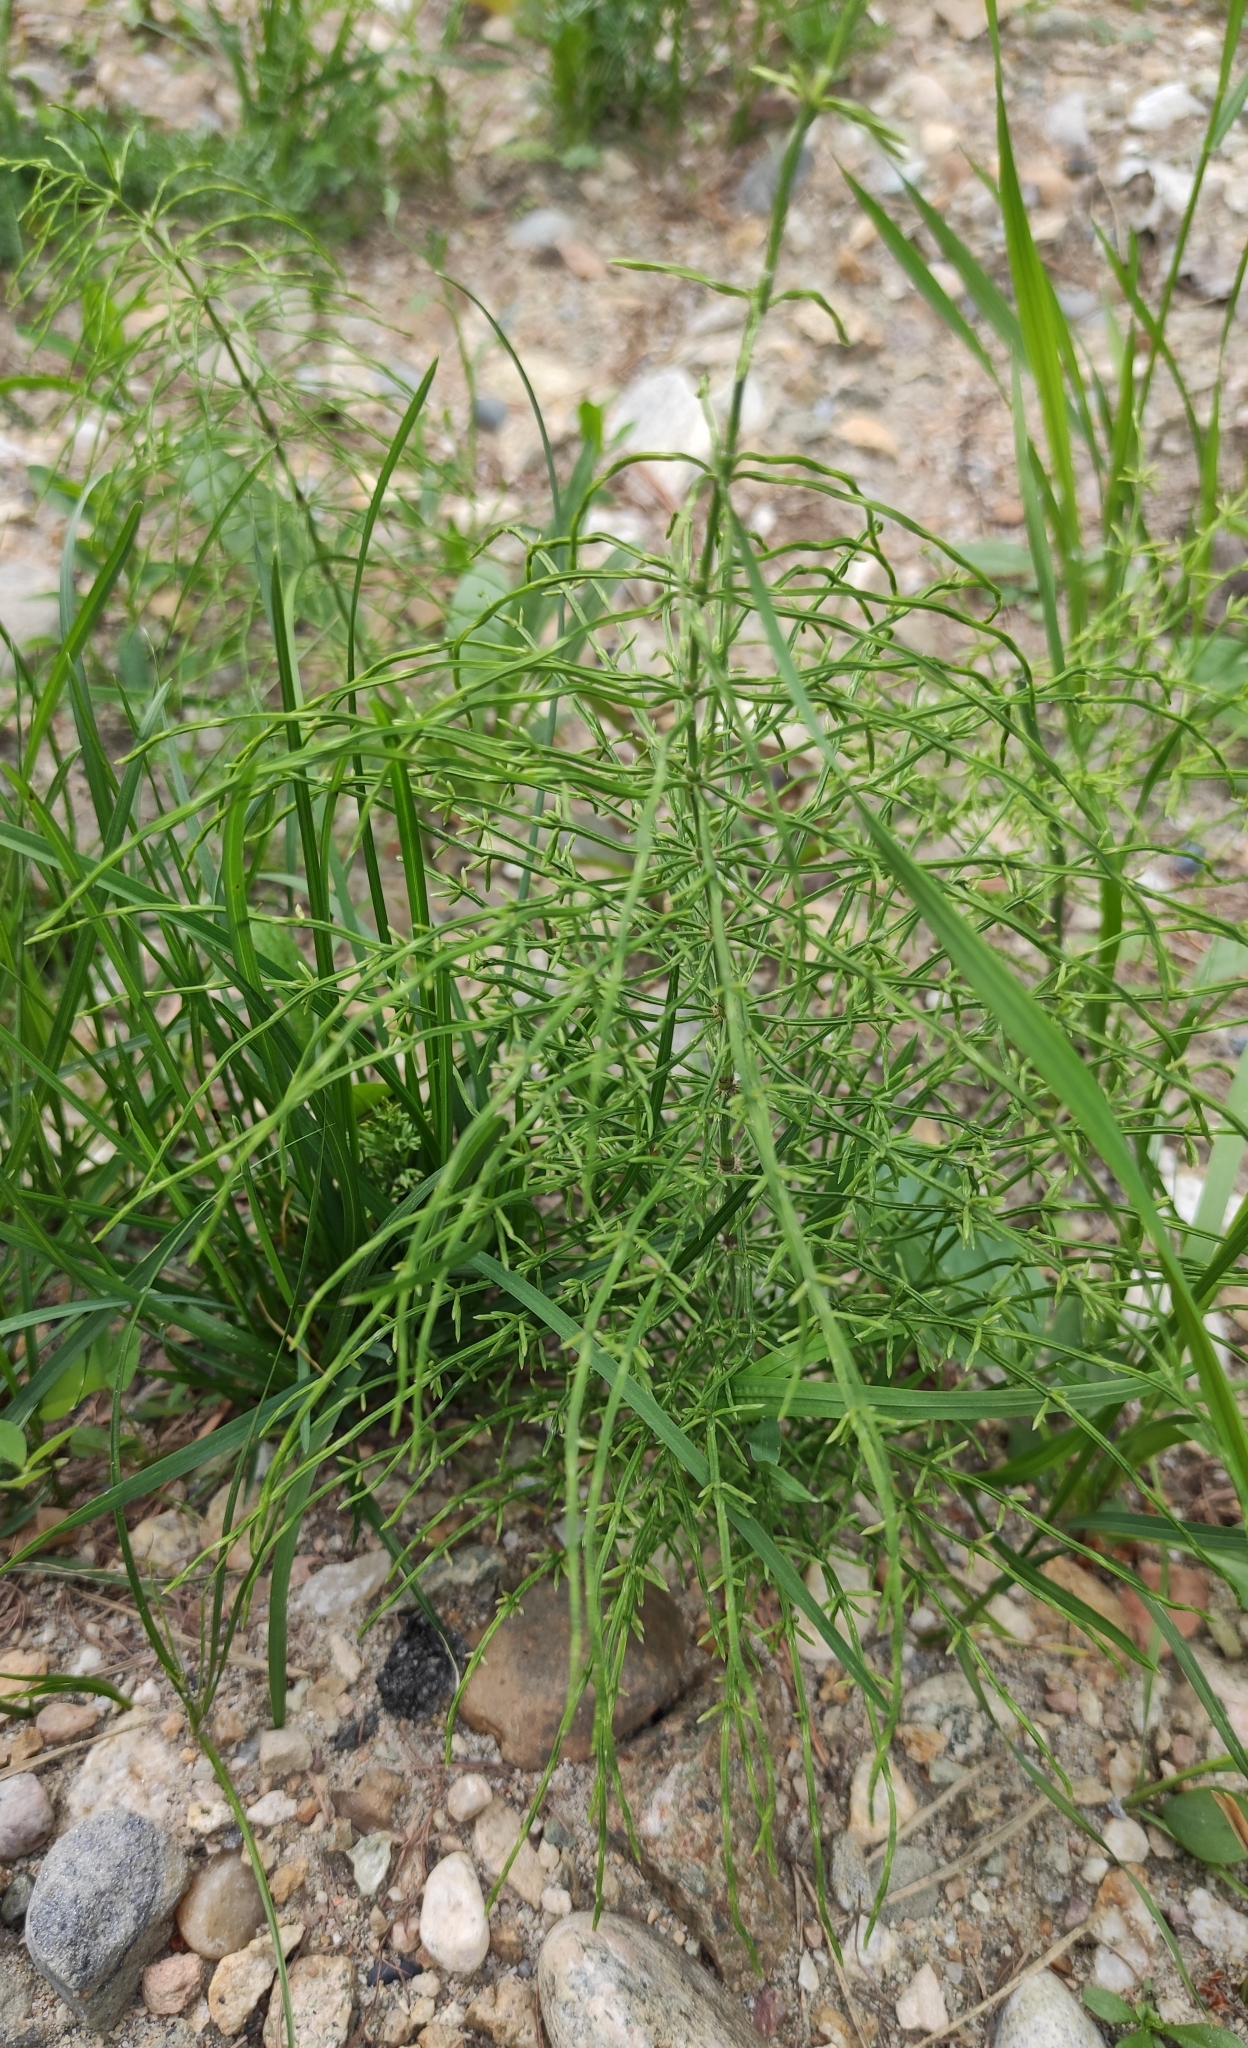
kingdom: Plantae
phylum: Tracheophyta
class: Polypodiopsida
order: Equisetales
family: Equisetaceae
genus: Equisetum
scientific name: Equisetum arvense
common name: Field horsetail
